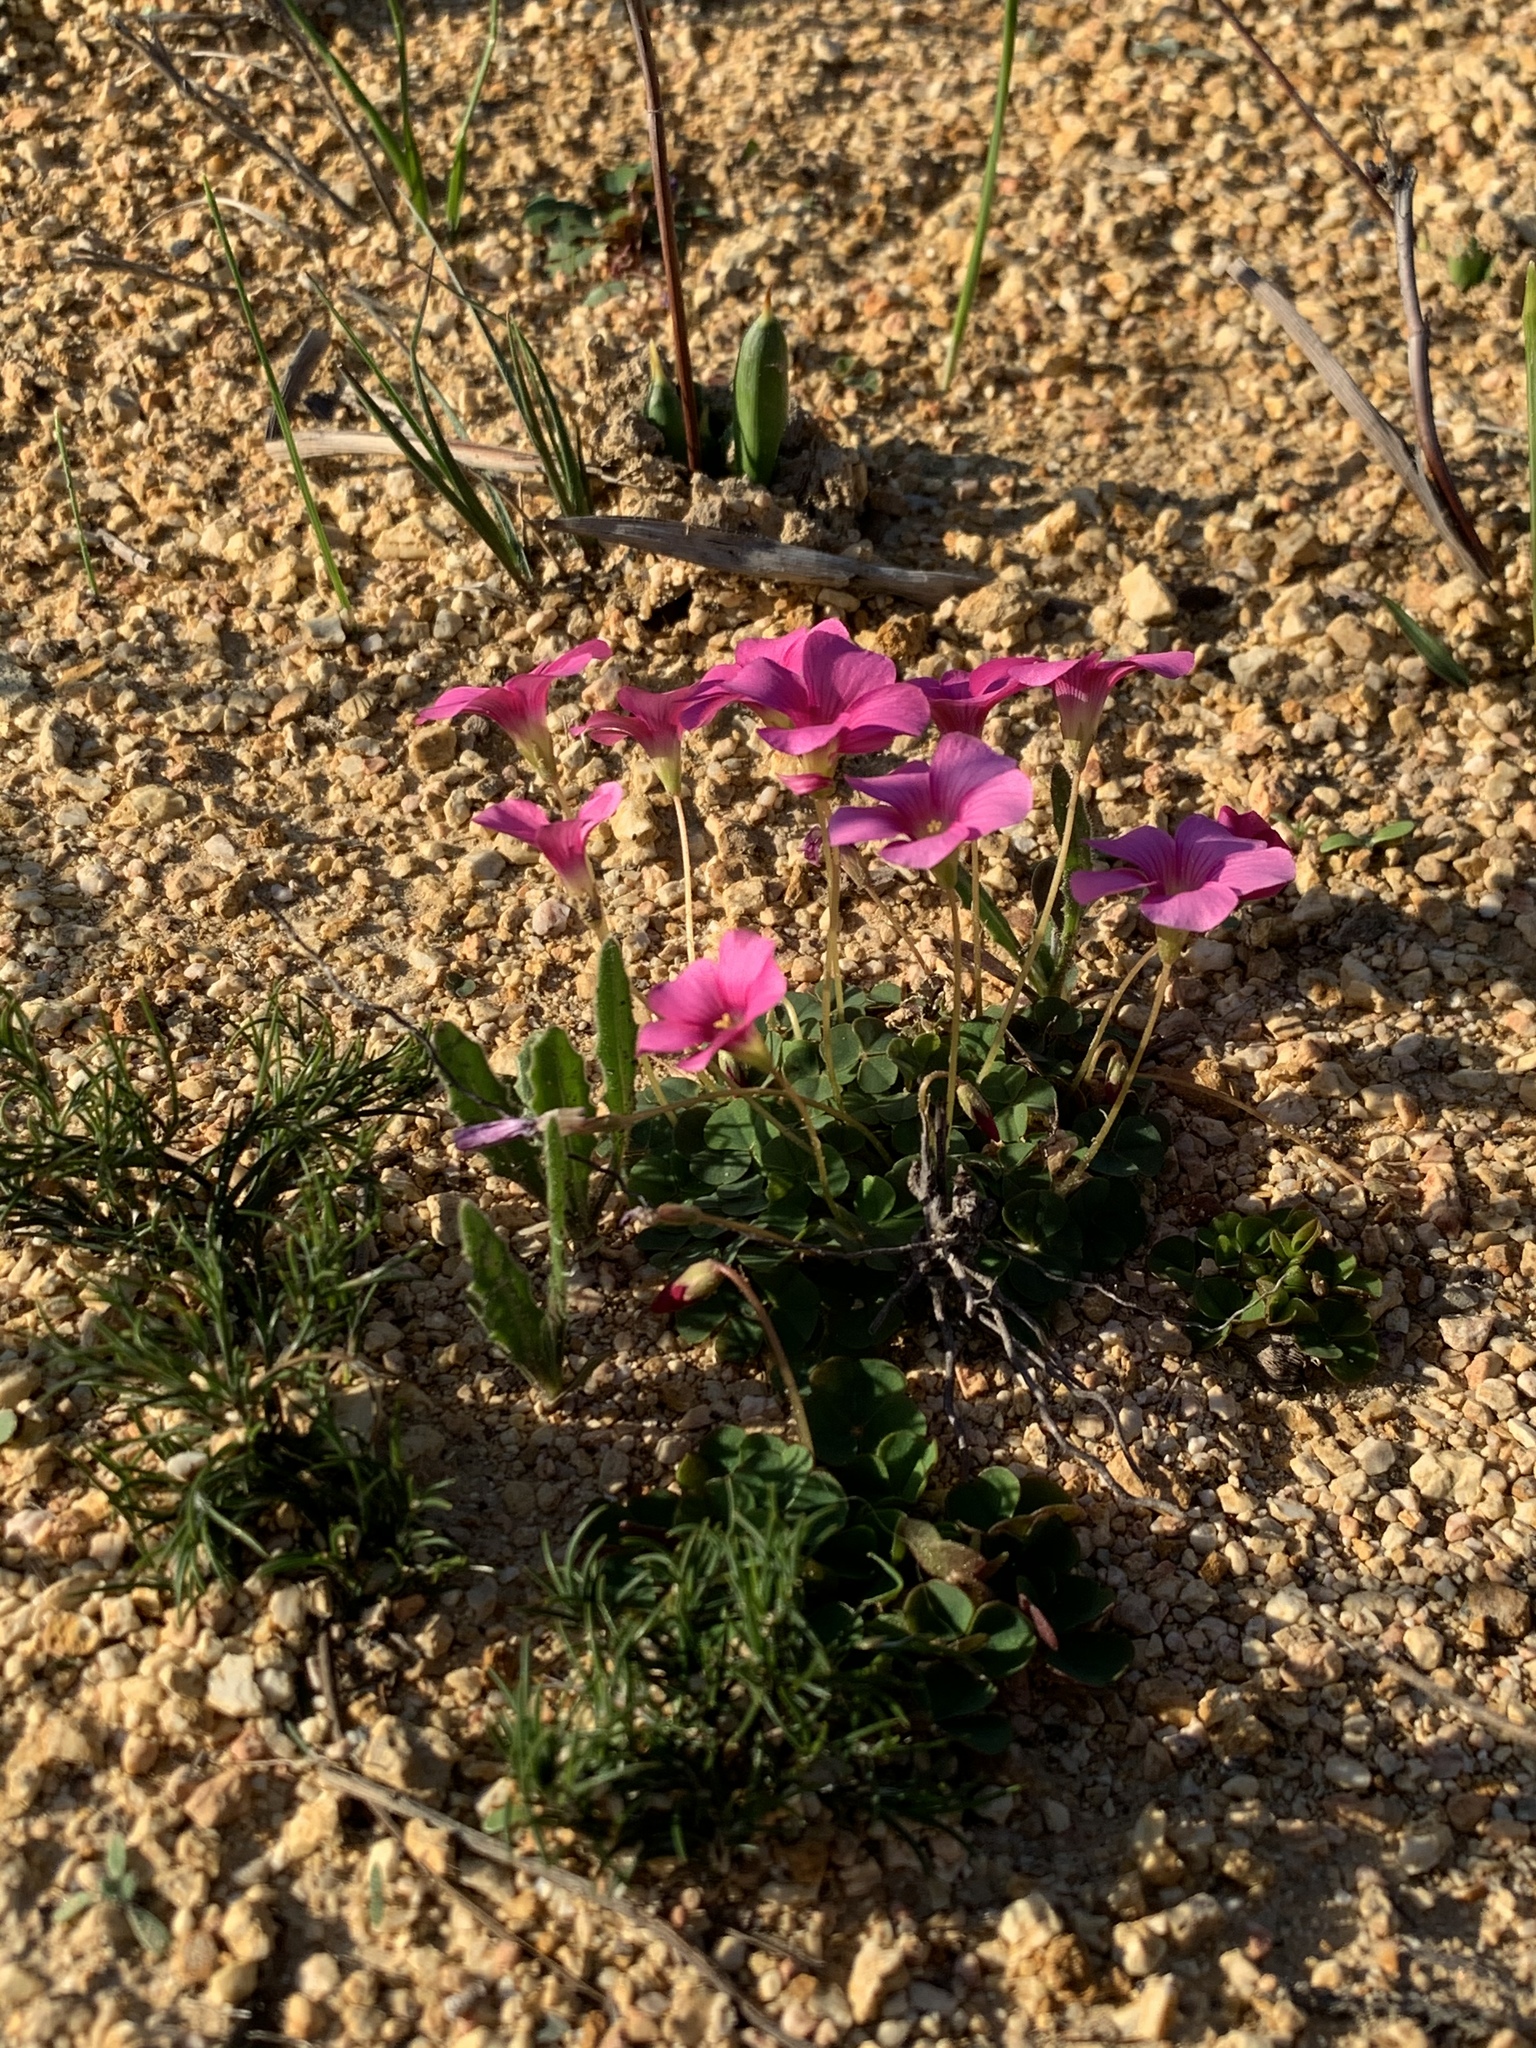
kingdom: Plantae
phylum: Tracheophyta
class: Magnoliopsida
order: Oxalidales
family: Oxalidaceae
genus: Oxalis
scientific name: Oxalis commutata
